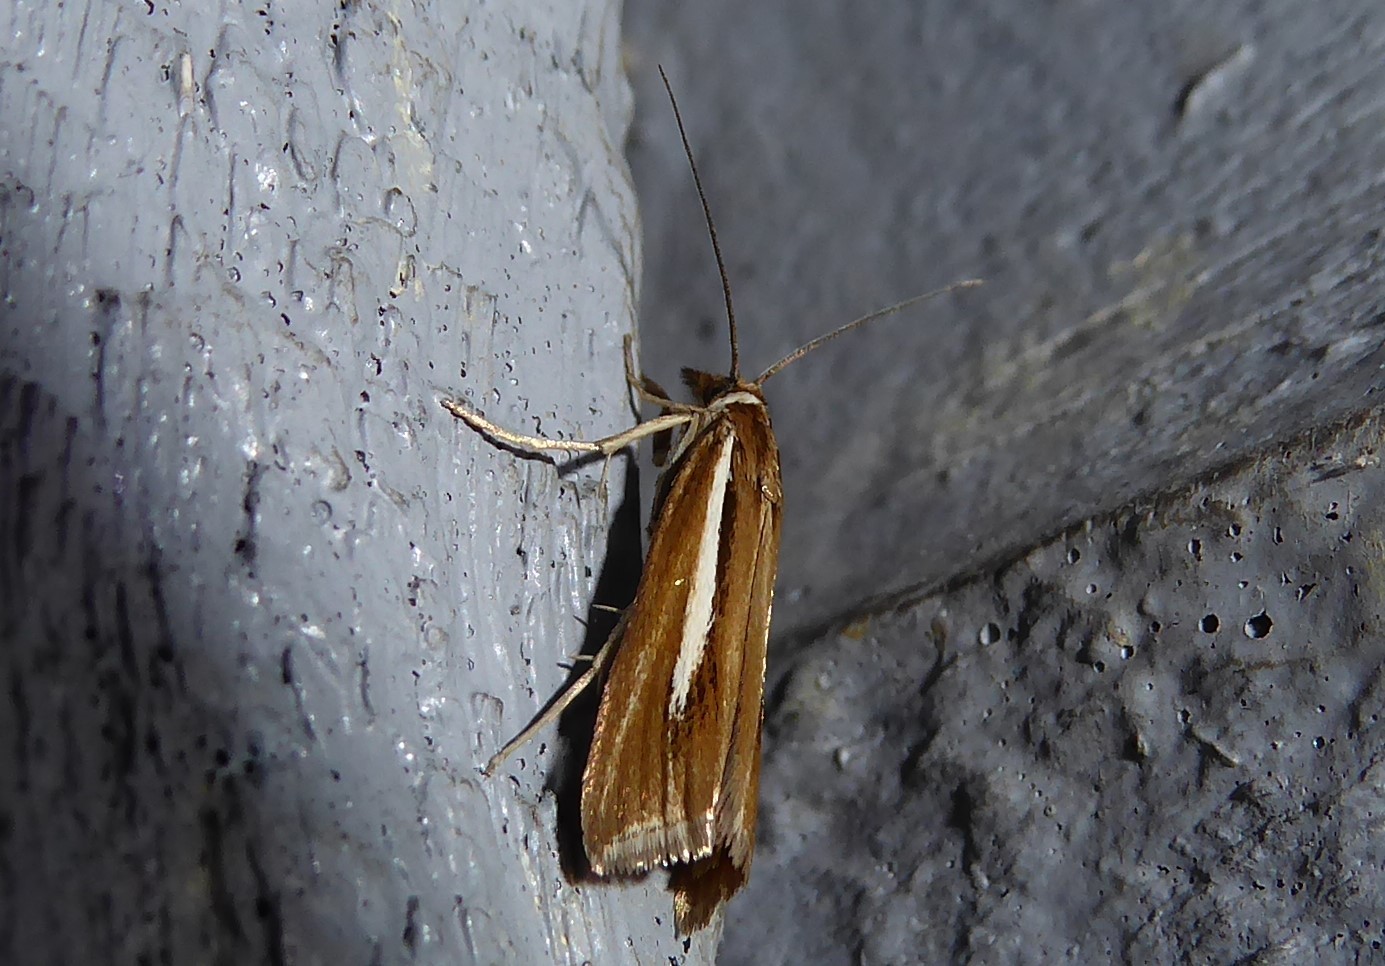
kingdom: Animalia
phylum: Arthropoda
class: Insecta
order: Lepidoptera
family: Crambidae
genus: Orocrambus
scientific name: Orocrambus aethonellus
